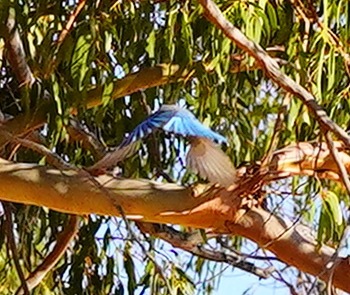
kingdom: Animalia
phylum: Chordata
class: Aves
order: Passeriformes
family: Corvidae
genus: Aphelocoma
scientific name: Aphelocoma californica
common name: California scrub-jay
